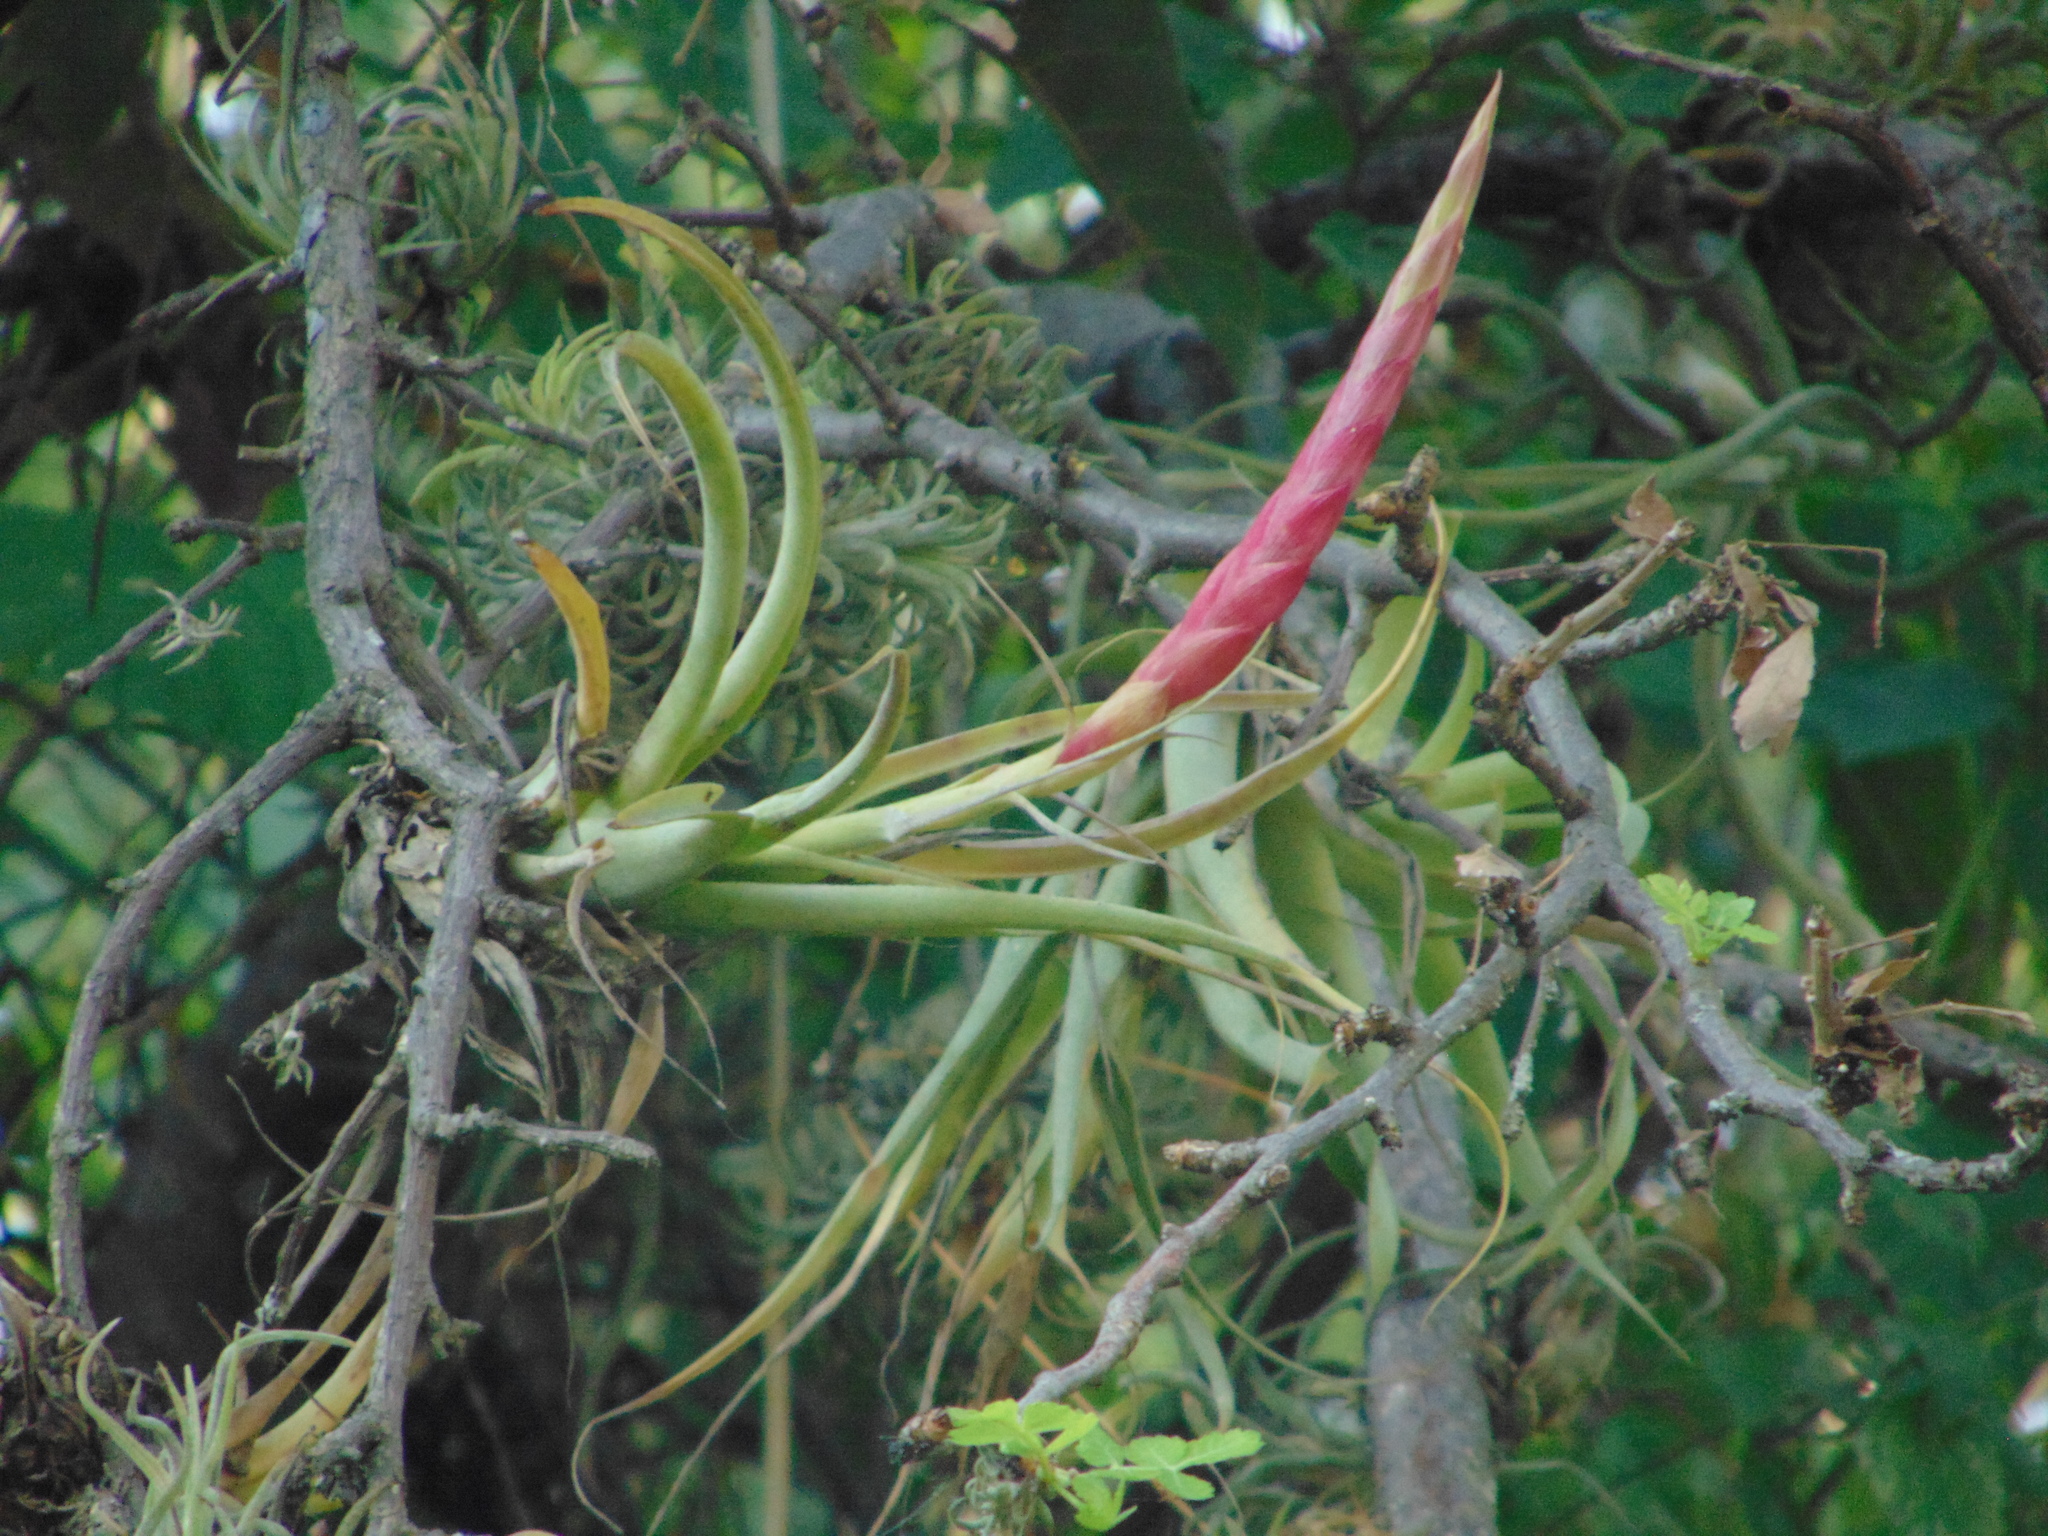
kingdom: Plantae
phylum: Tracheophyta
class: Liliopsida
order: Poales
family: Bromeliaceae
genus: Tillandsia
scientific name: Tillandsia achyrostachys
